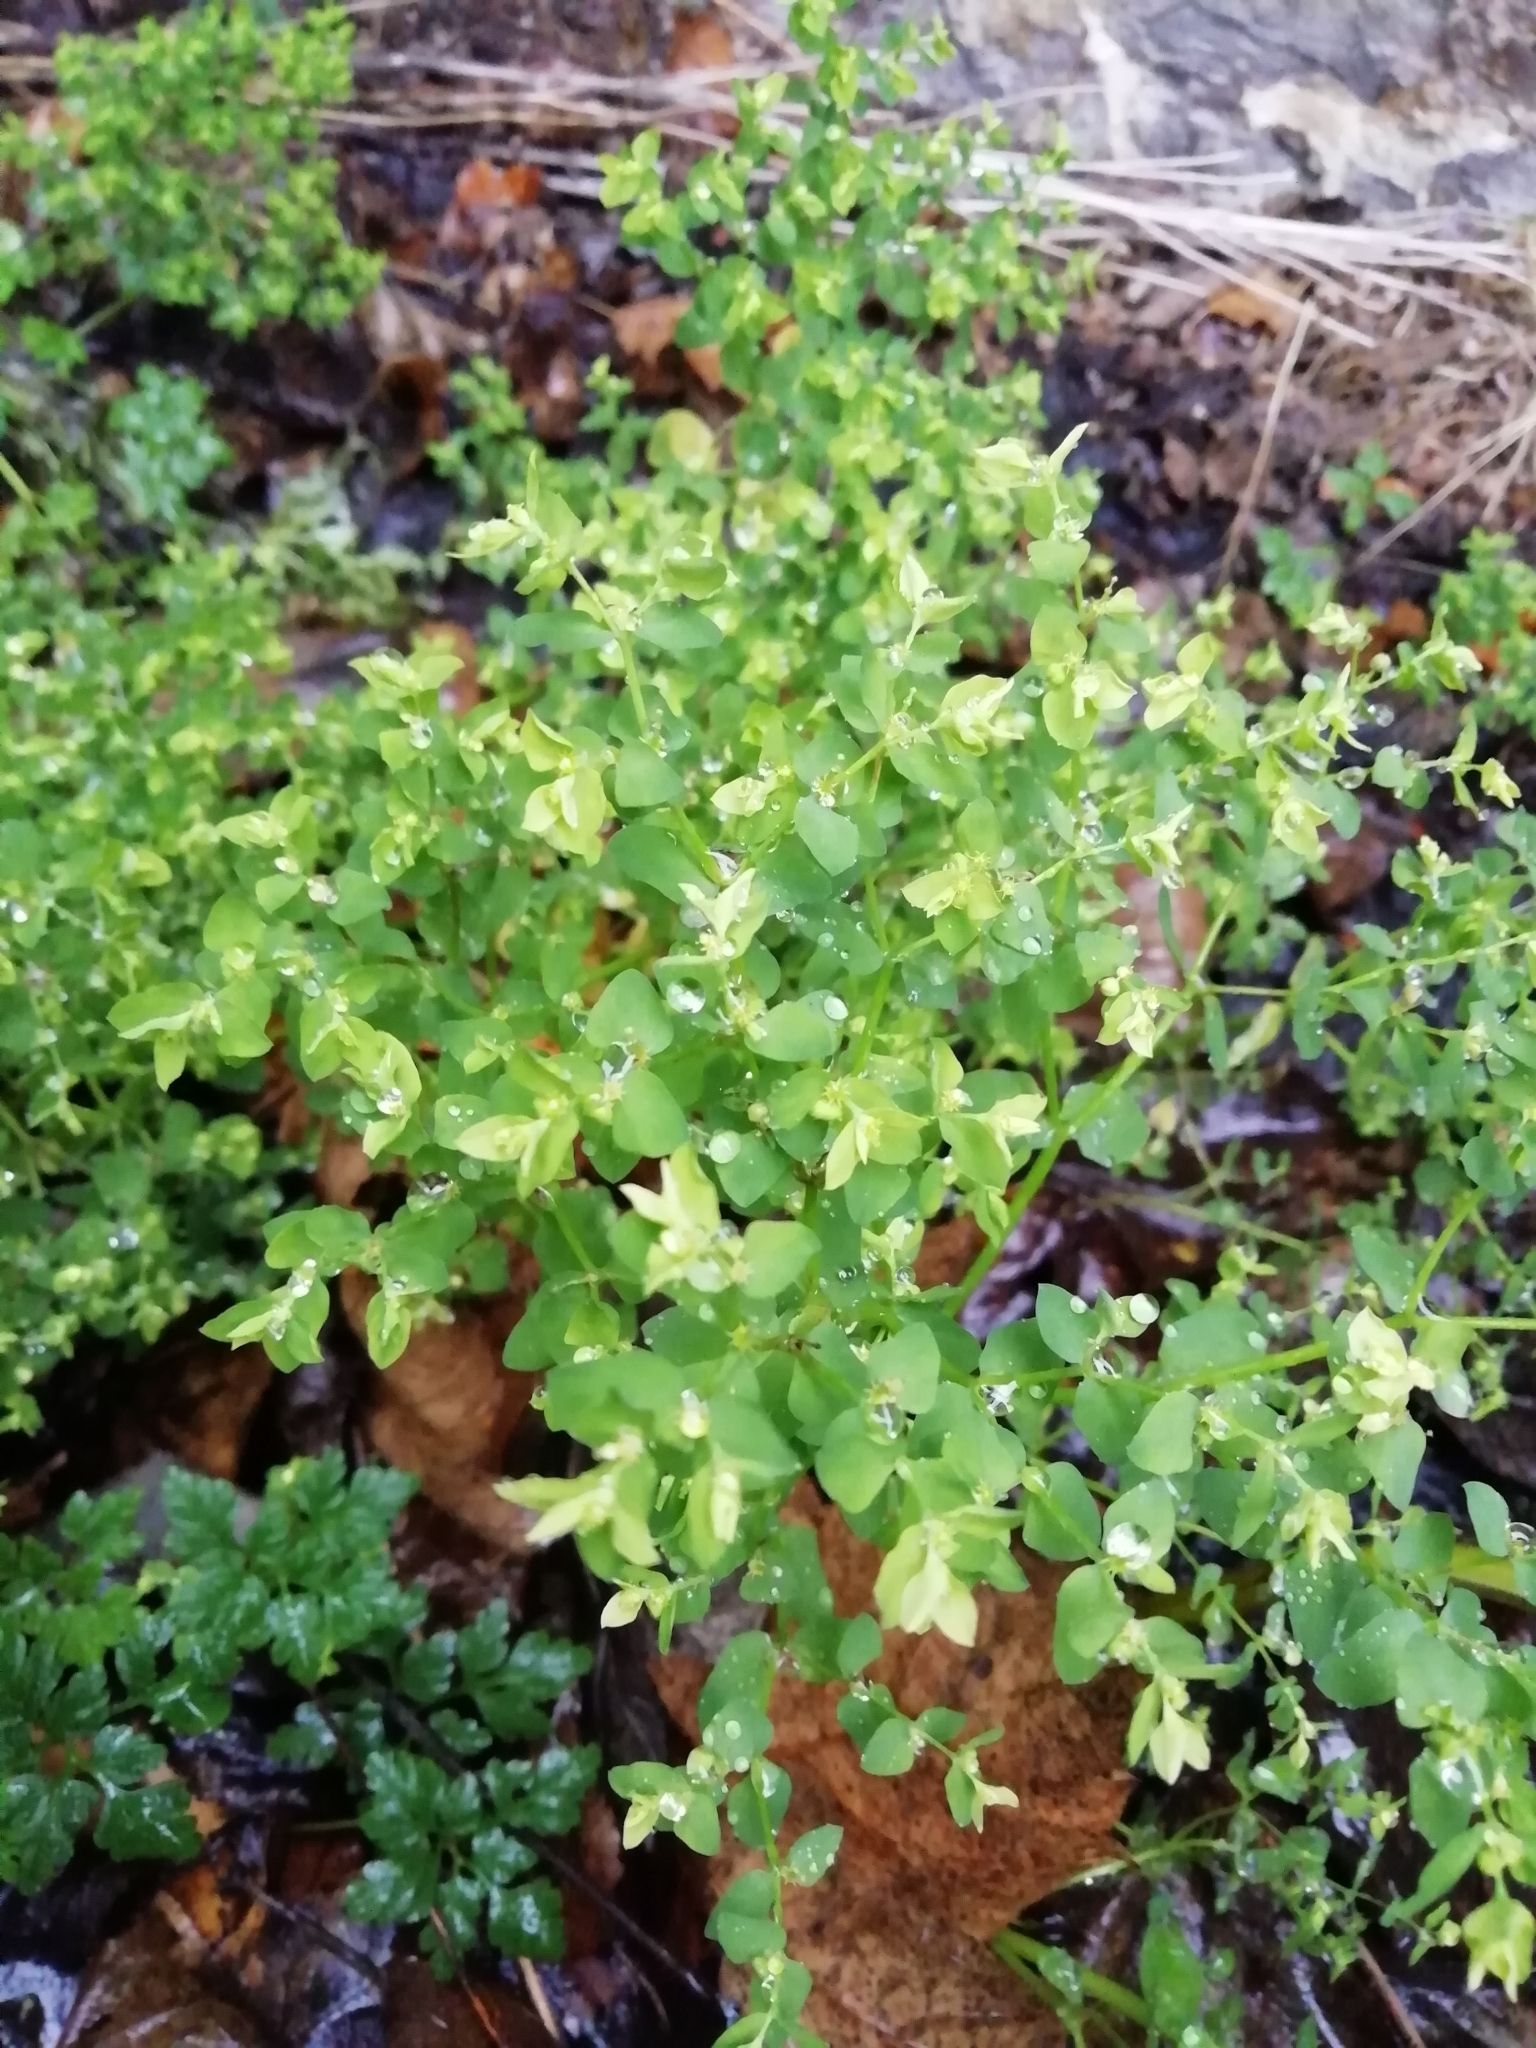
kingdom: Plantae
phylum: Tracheophyta
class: Magnoliopsida
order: Malpighiales
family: Euphorbiaceae
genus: Euphorbia
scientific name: Euphorbia peplus
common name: Petty spurge
